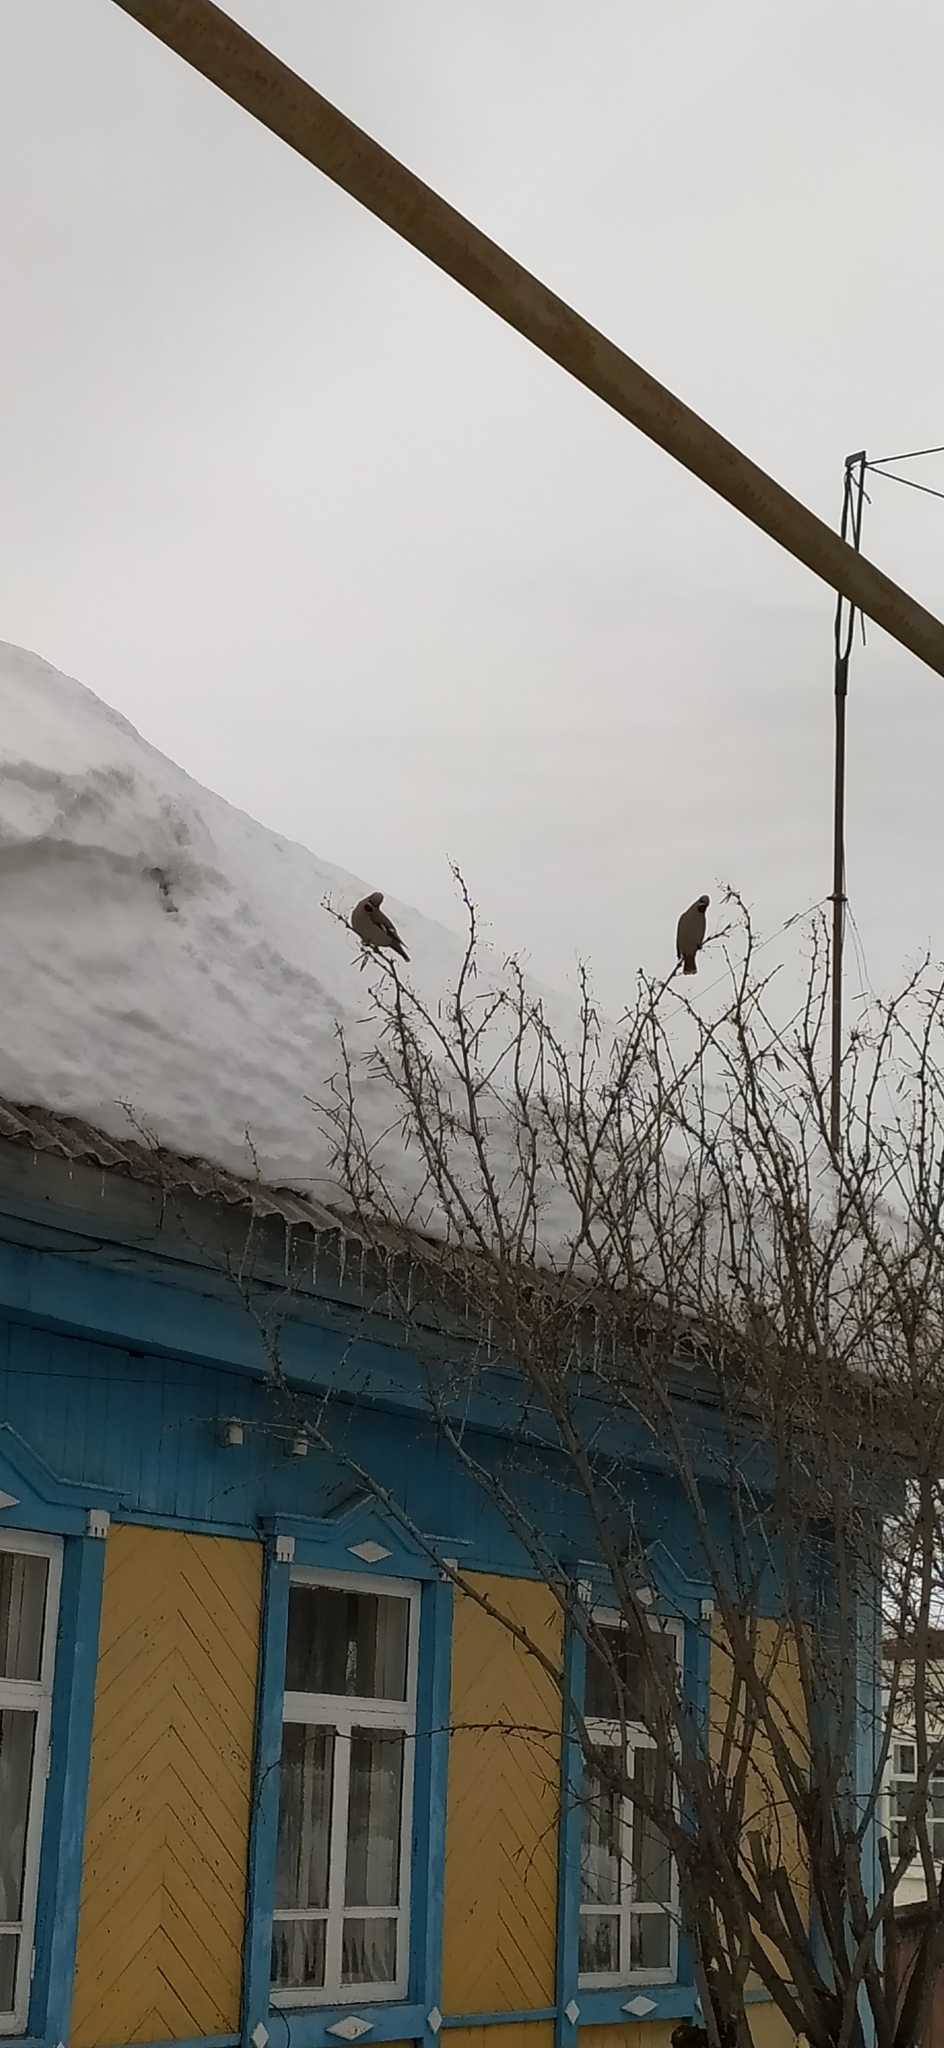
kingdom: Animalia
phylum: Chordata
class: Aves
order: Passeriformes
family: Bombycillidae
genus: Bombycilla
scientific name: Bombycilla garrulus
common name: Bohemian waxwing
